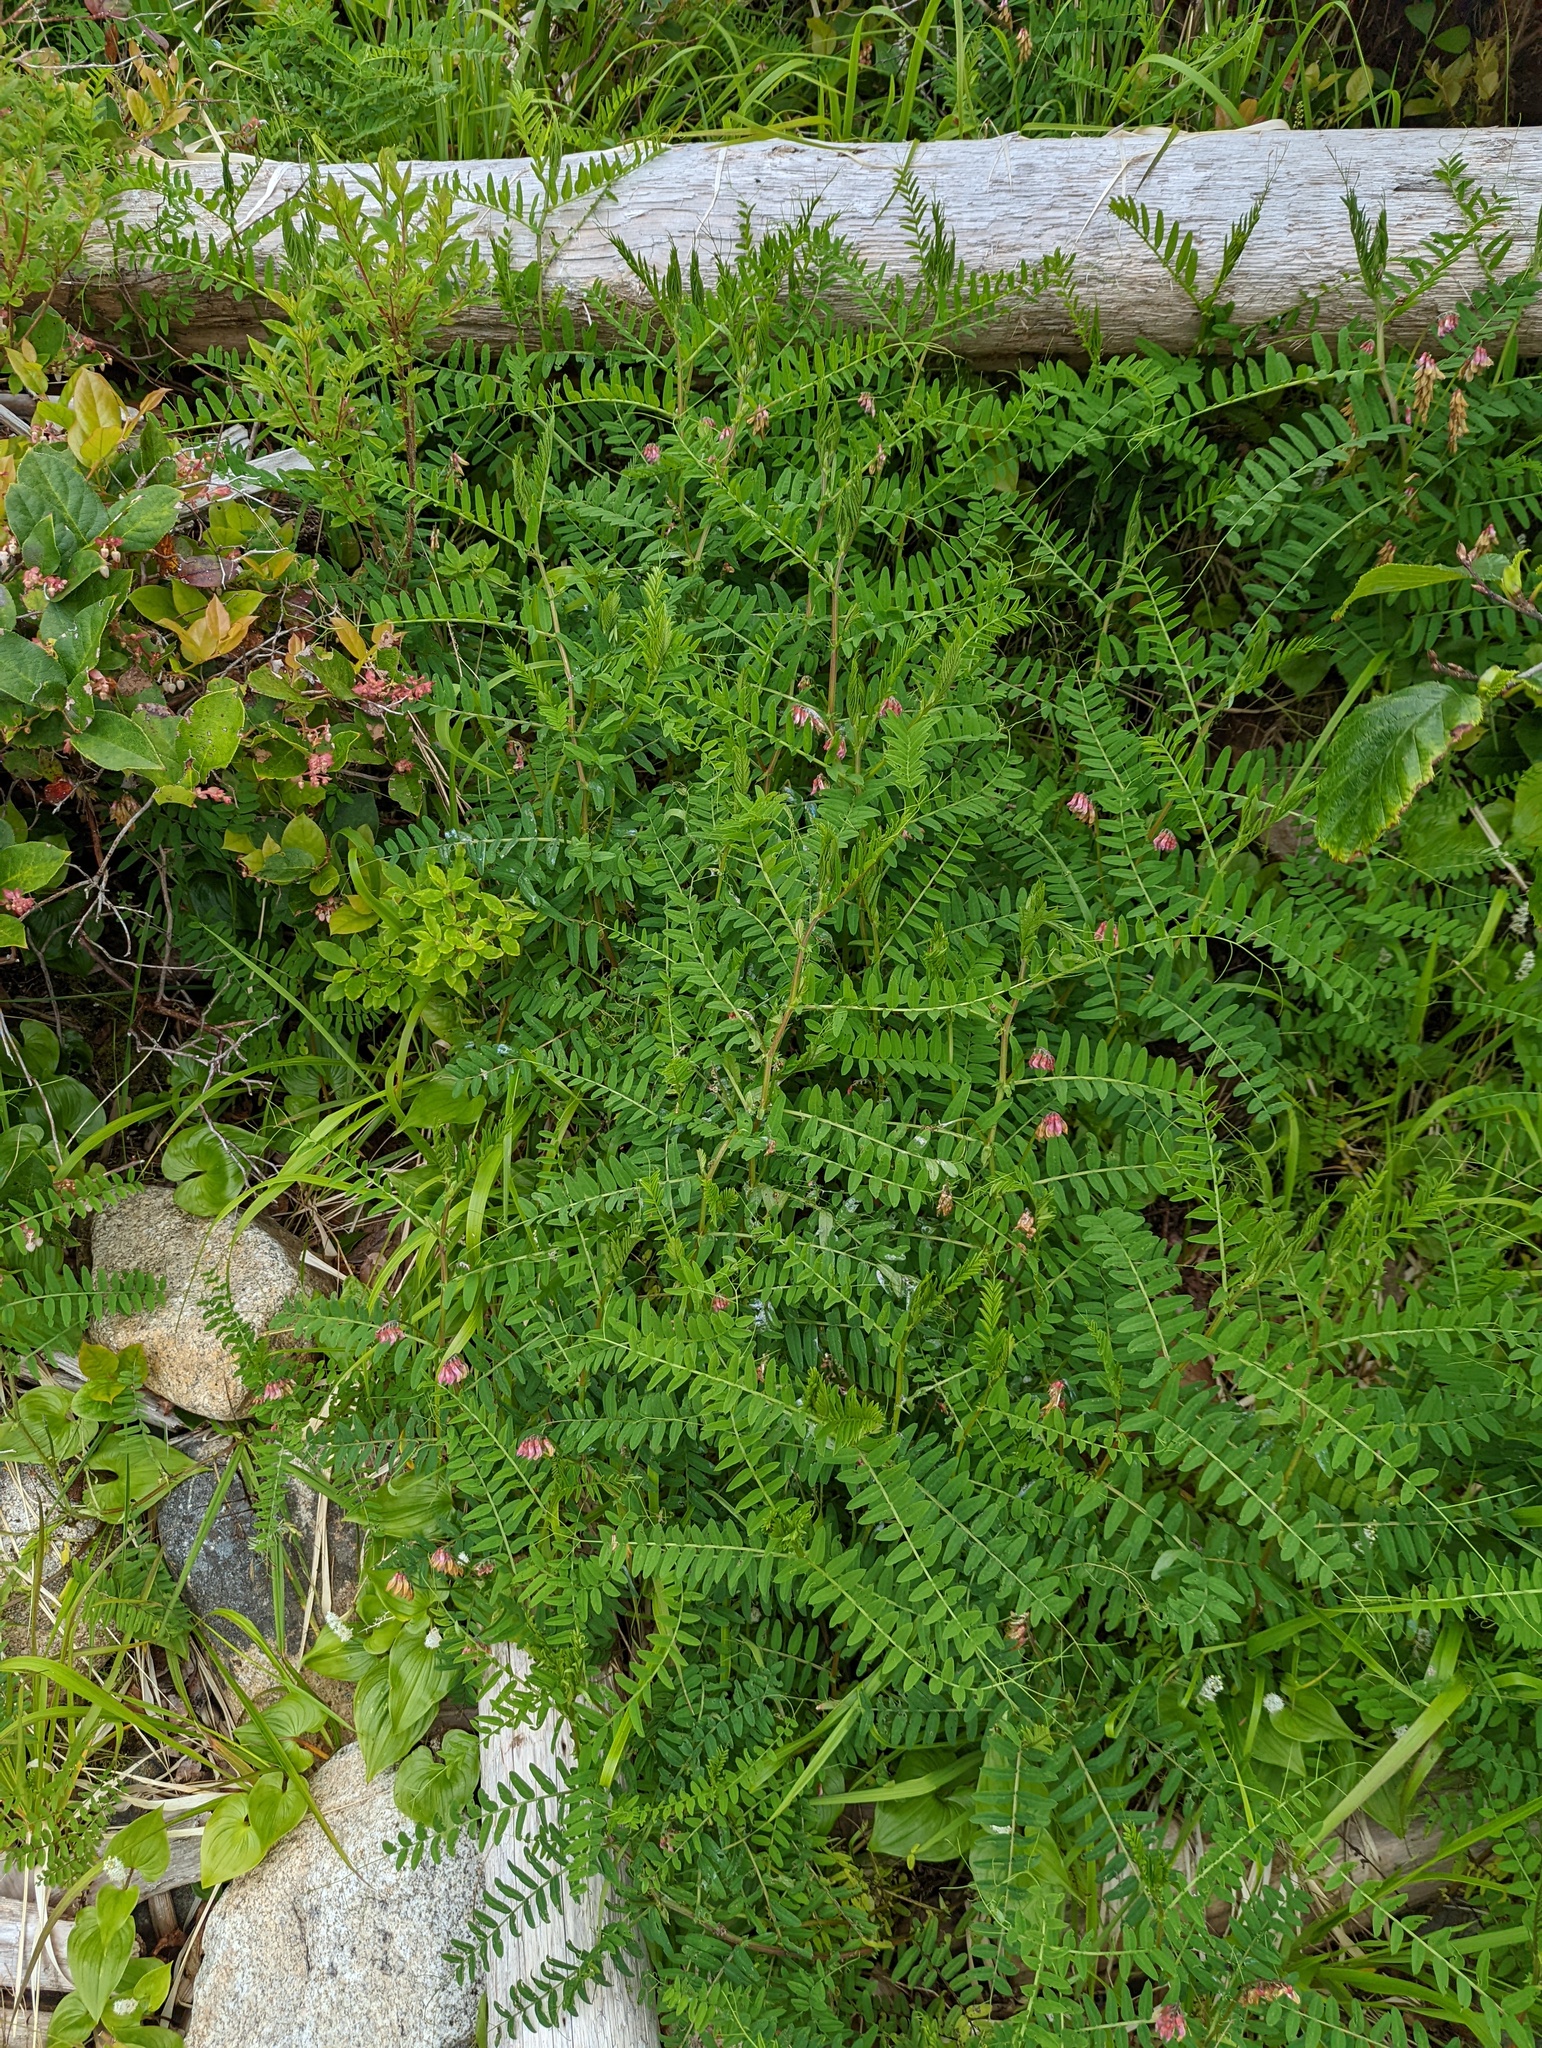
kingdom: Plantae
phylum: Tracheophyta
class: Magnoliopsida
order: Fabales
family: Fabaceae
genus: Vicia
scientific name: Vicia
